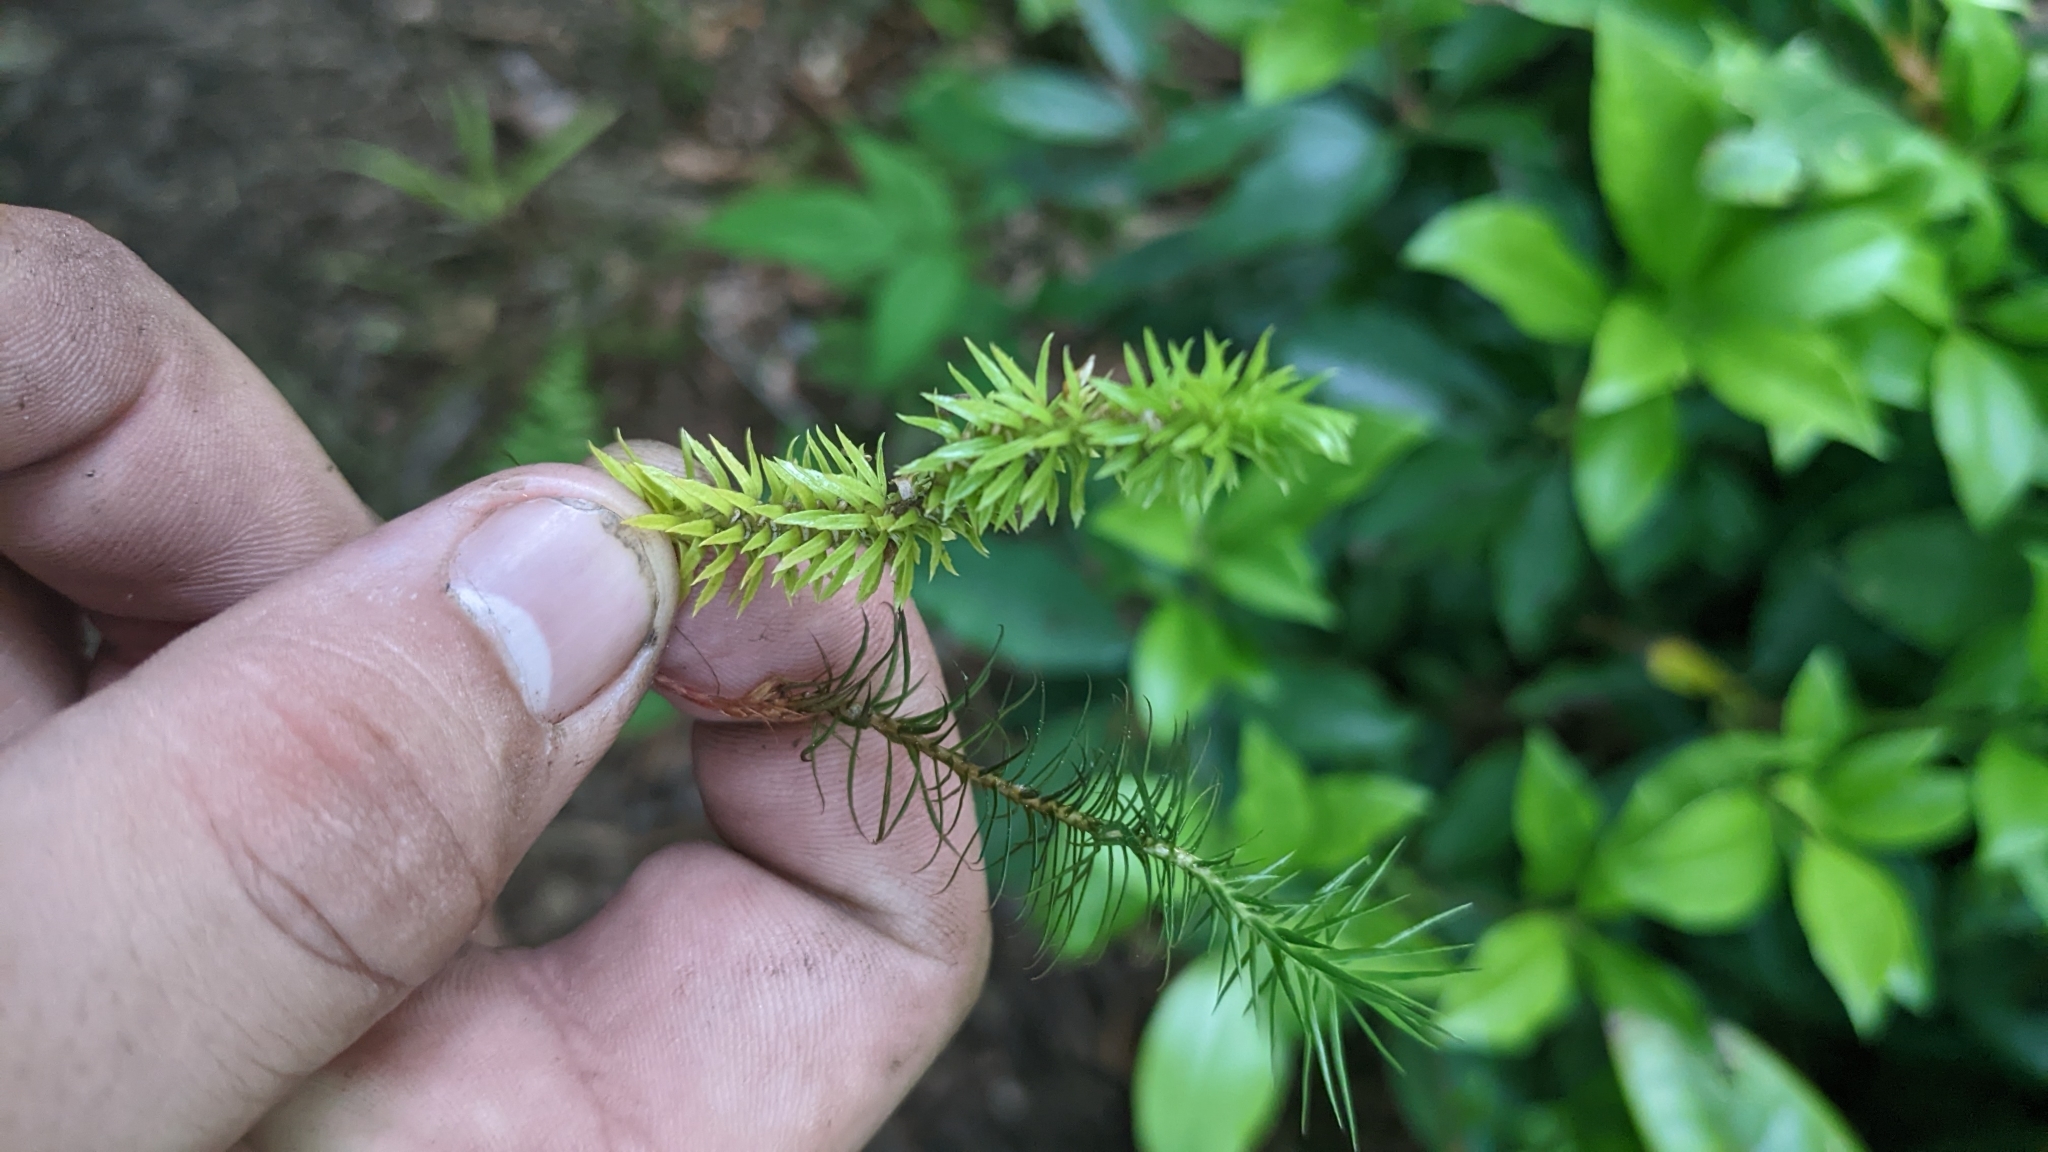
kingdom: Plantae
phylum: Tracheophyta
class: Lycopodiopsida
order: Lycopodiales
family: Lycopodiaceae
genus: Huperzia
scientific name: Huperzia lucidula
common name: Shining clubmoss
